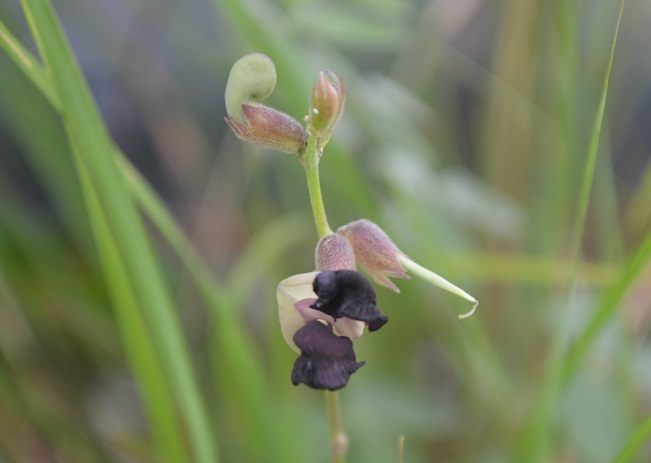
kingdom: Plantae
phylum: Tracheophyta
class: Magnoliopsida
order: Fabales
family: Fabaceae
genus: Macroptilium
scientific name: Macroptilium atropurpureum
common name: Purple bushbean
